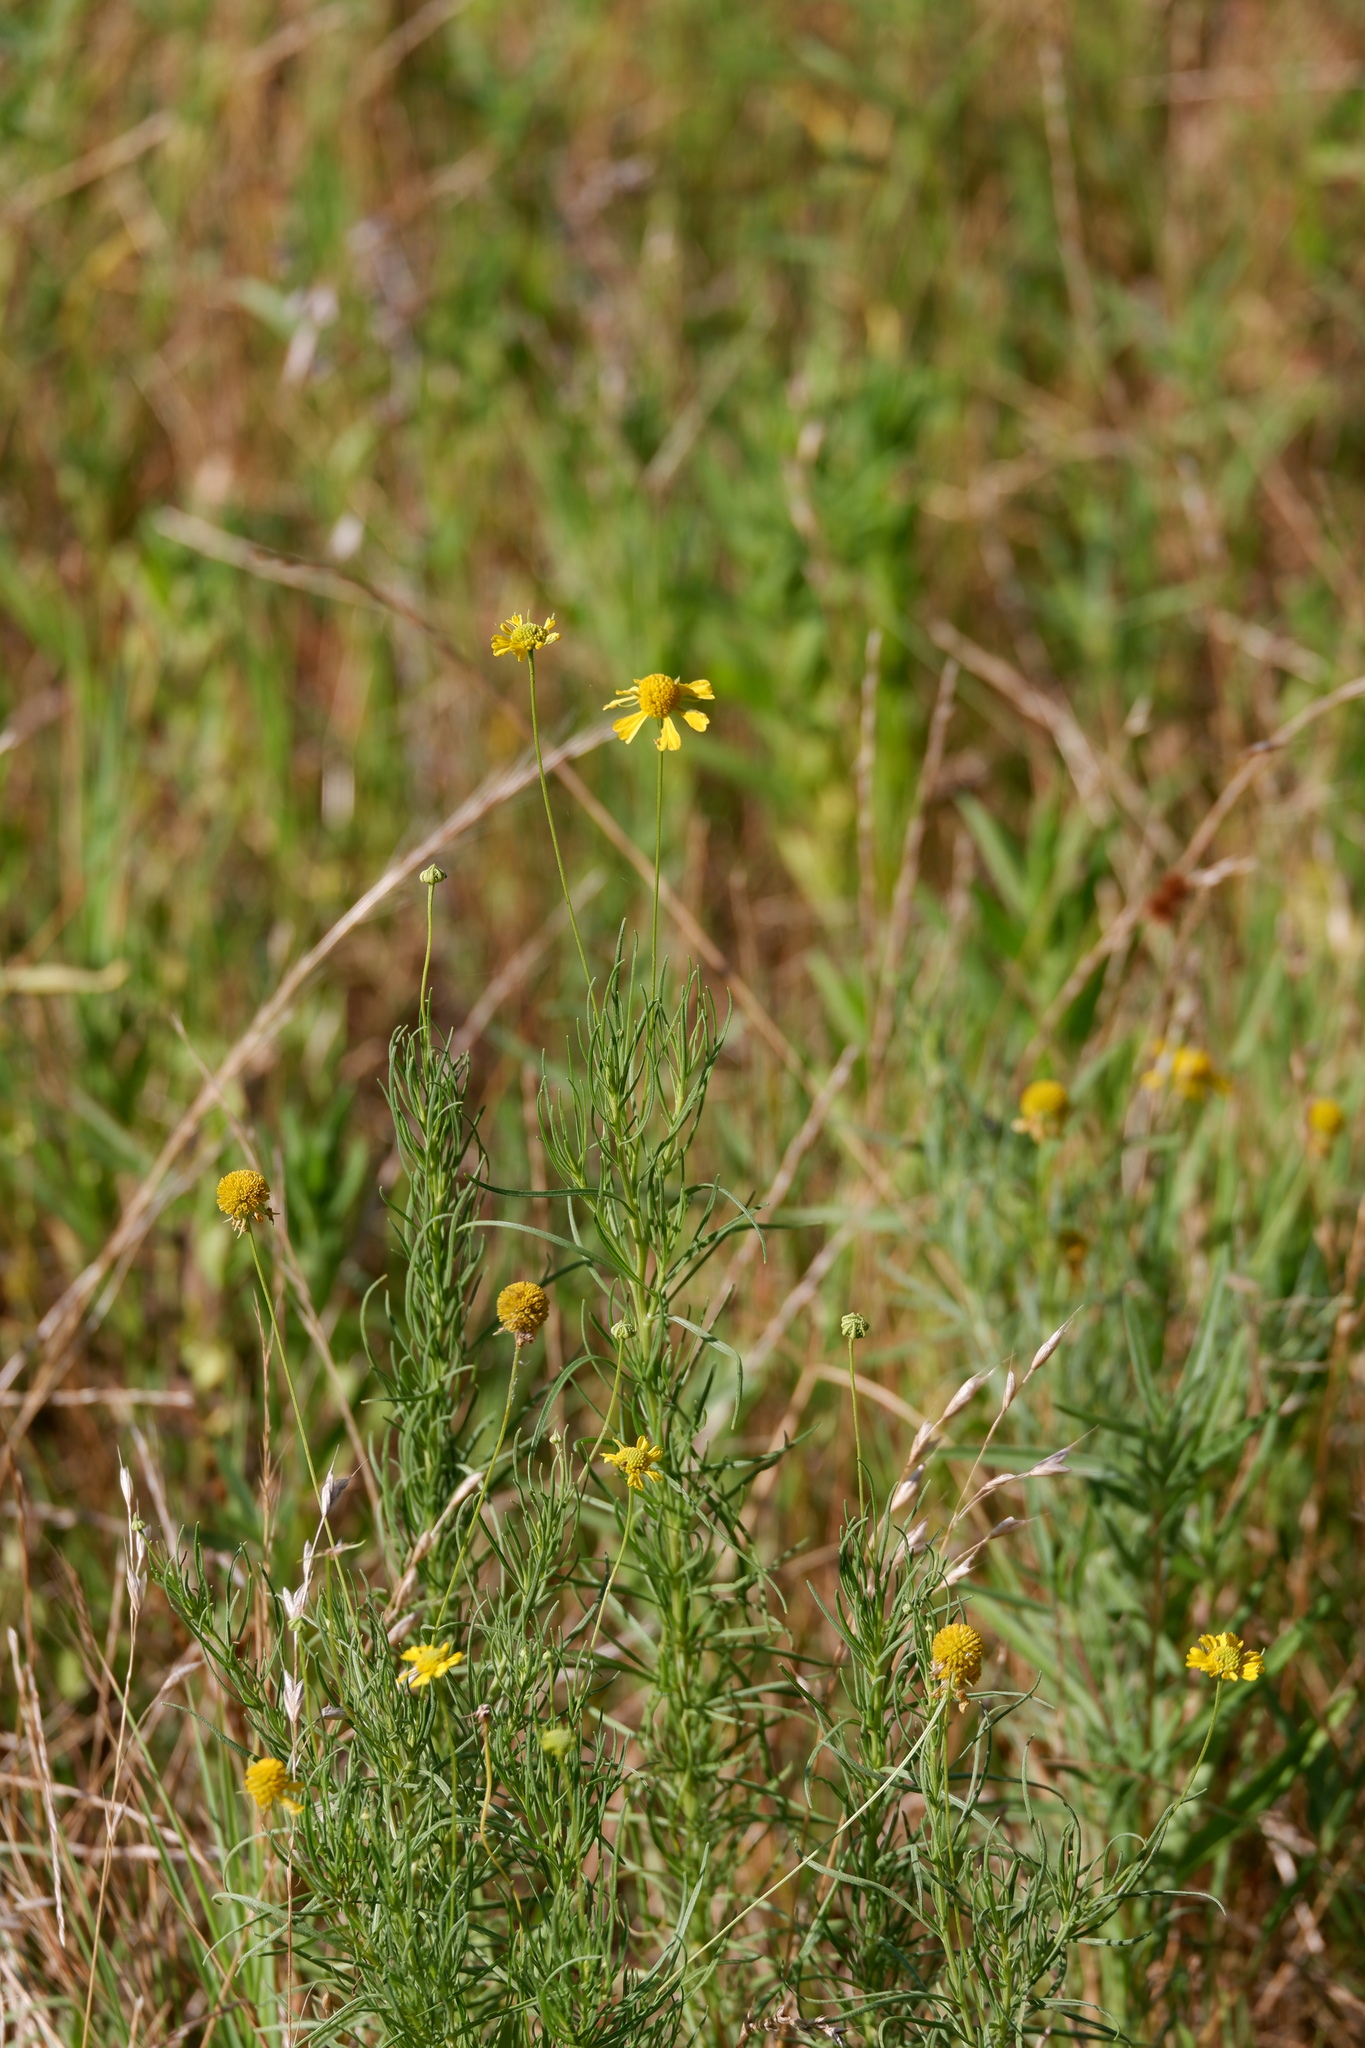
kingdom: Plantae
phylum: Tracheophyta
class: Magnoliopsida
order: Asterales
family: Asteraceae
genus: Helenium
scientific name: Helenium amarum
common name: Bitter sneezeweed
